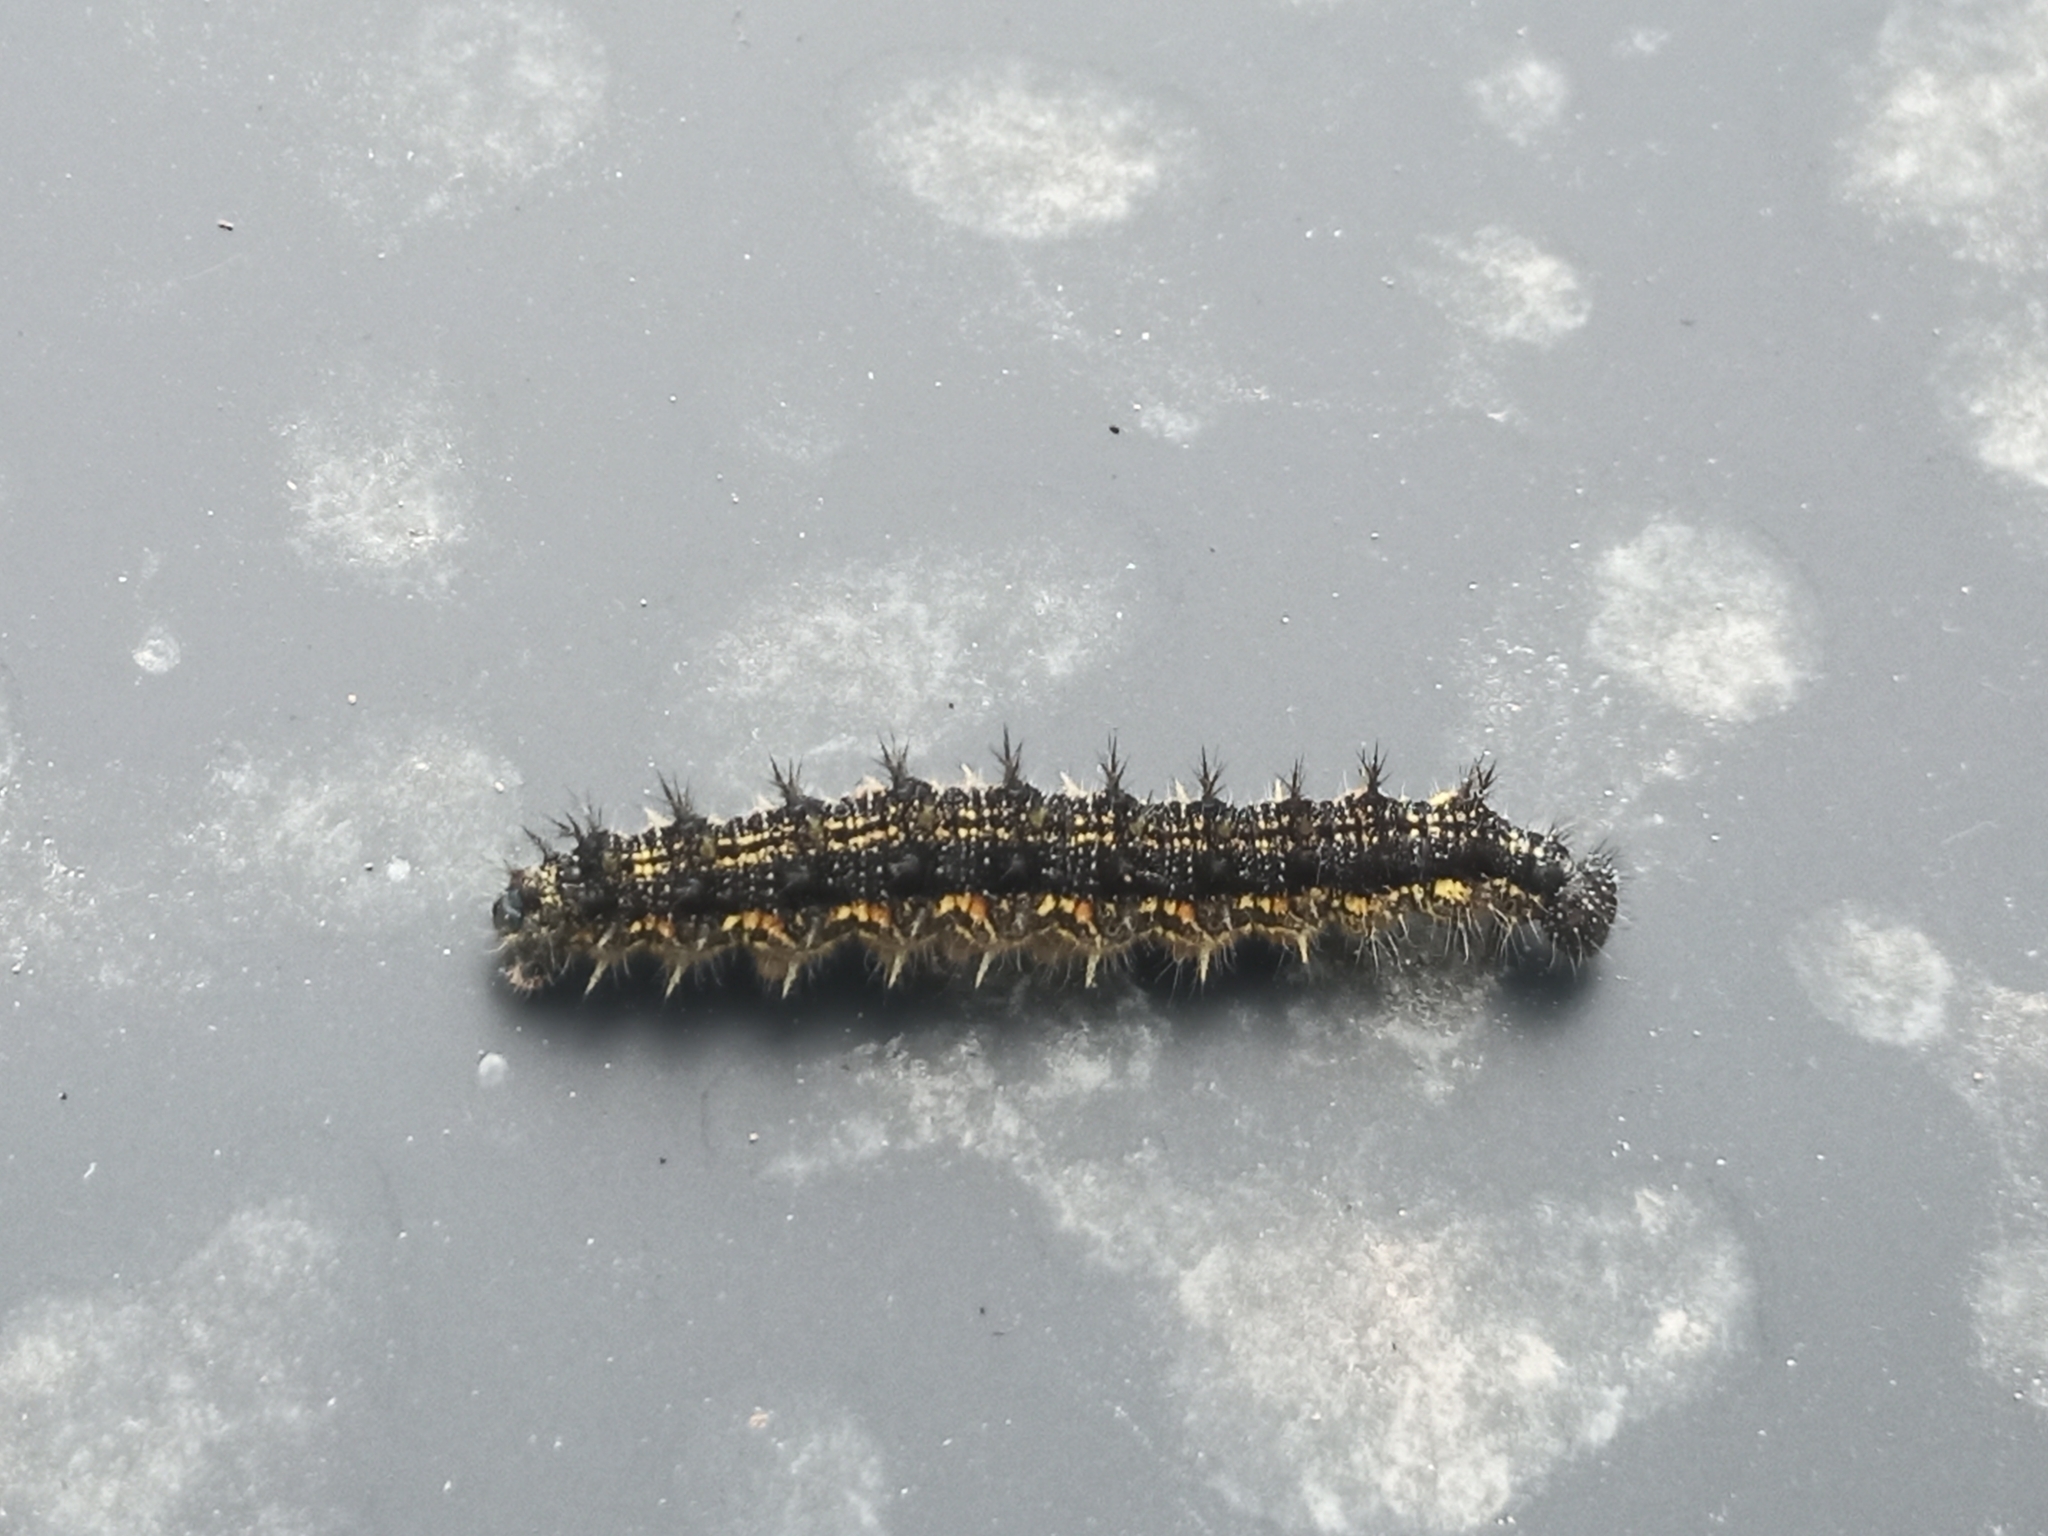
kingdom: Animalia
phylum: Arthropoda
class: Insecta
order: Lepidoptera
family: Nymphalidae
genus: Aglais
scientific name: Aglais urticae
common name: Small tortoiseshell
